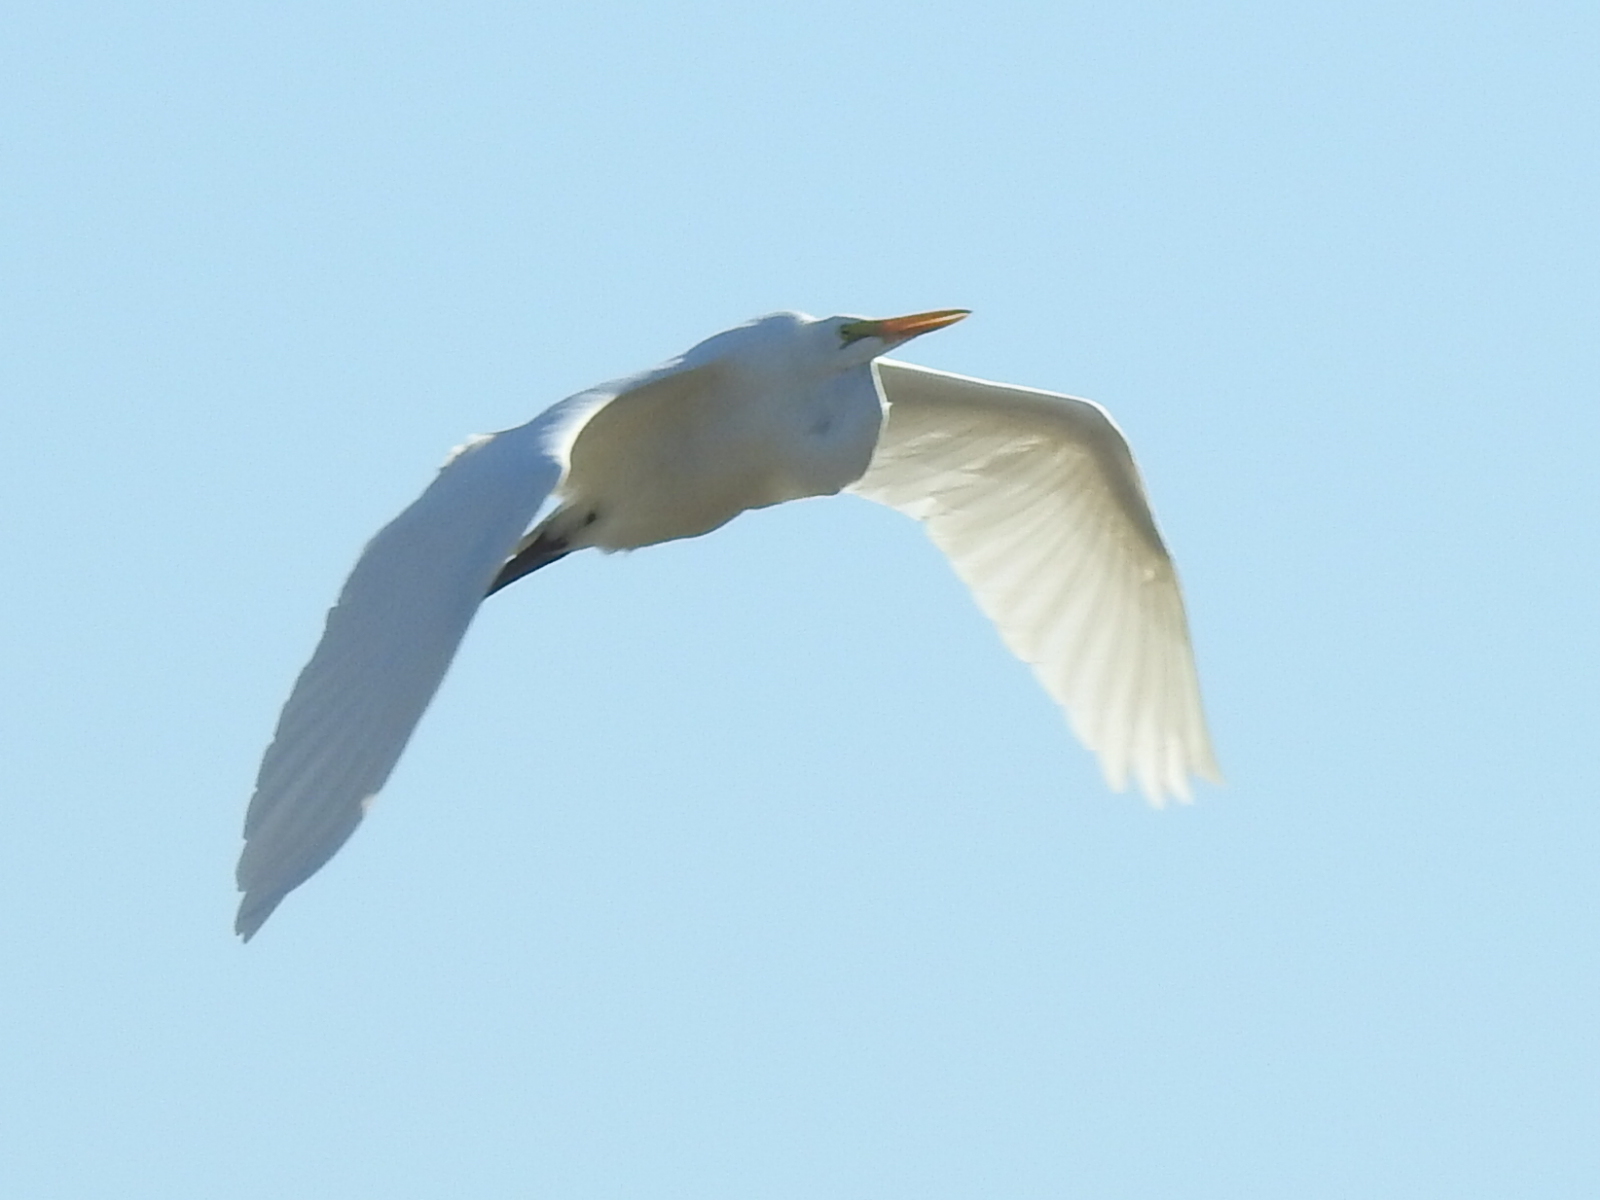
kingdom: Animalia
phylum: Chordata
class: Aves
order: Pelecaniformes
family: Ardeidae
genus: Ardea
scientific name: Ardea alba
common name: Great egret
